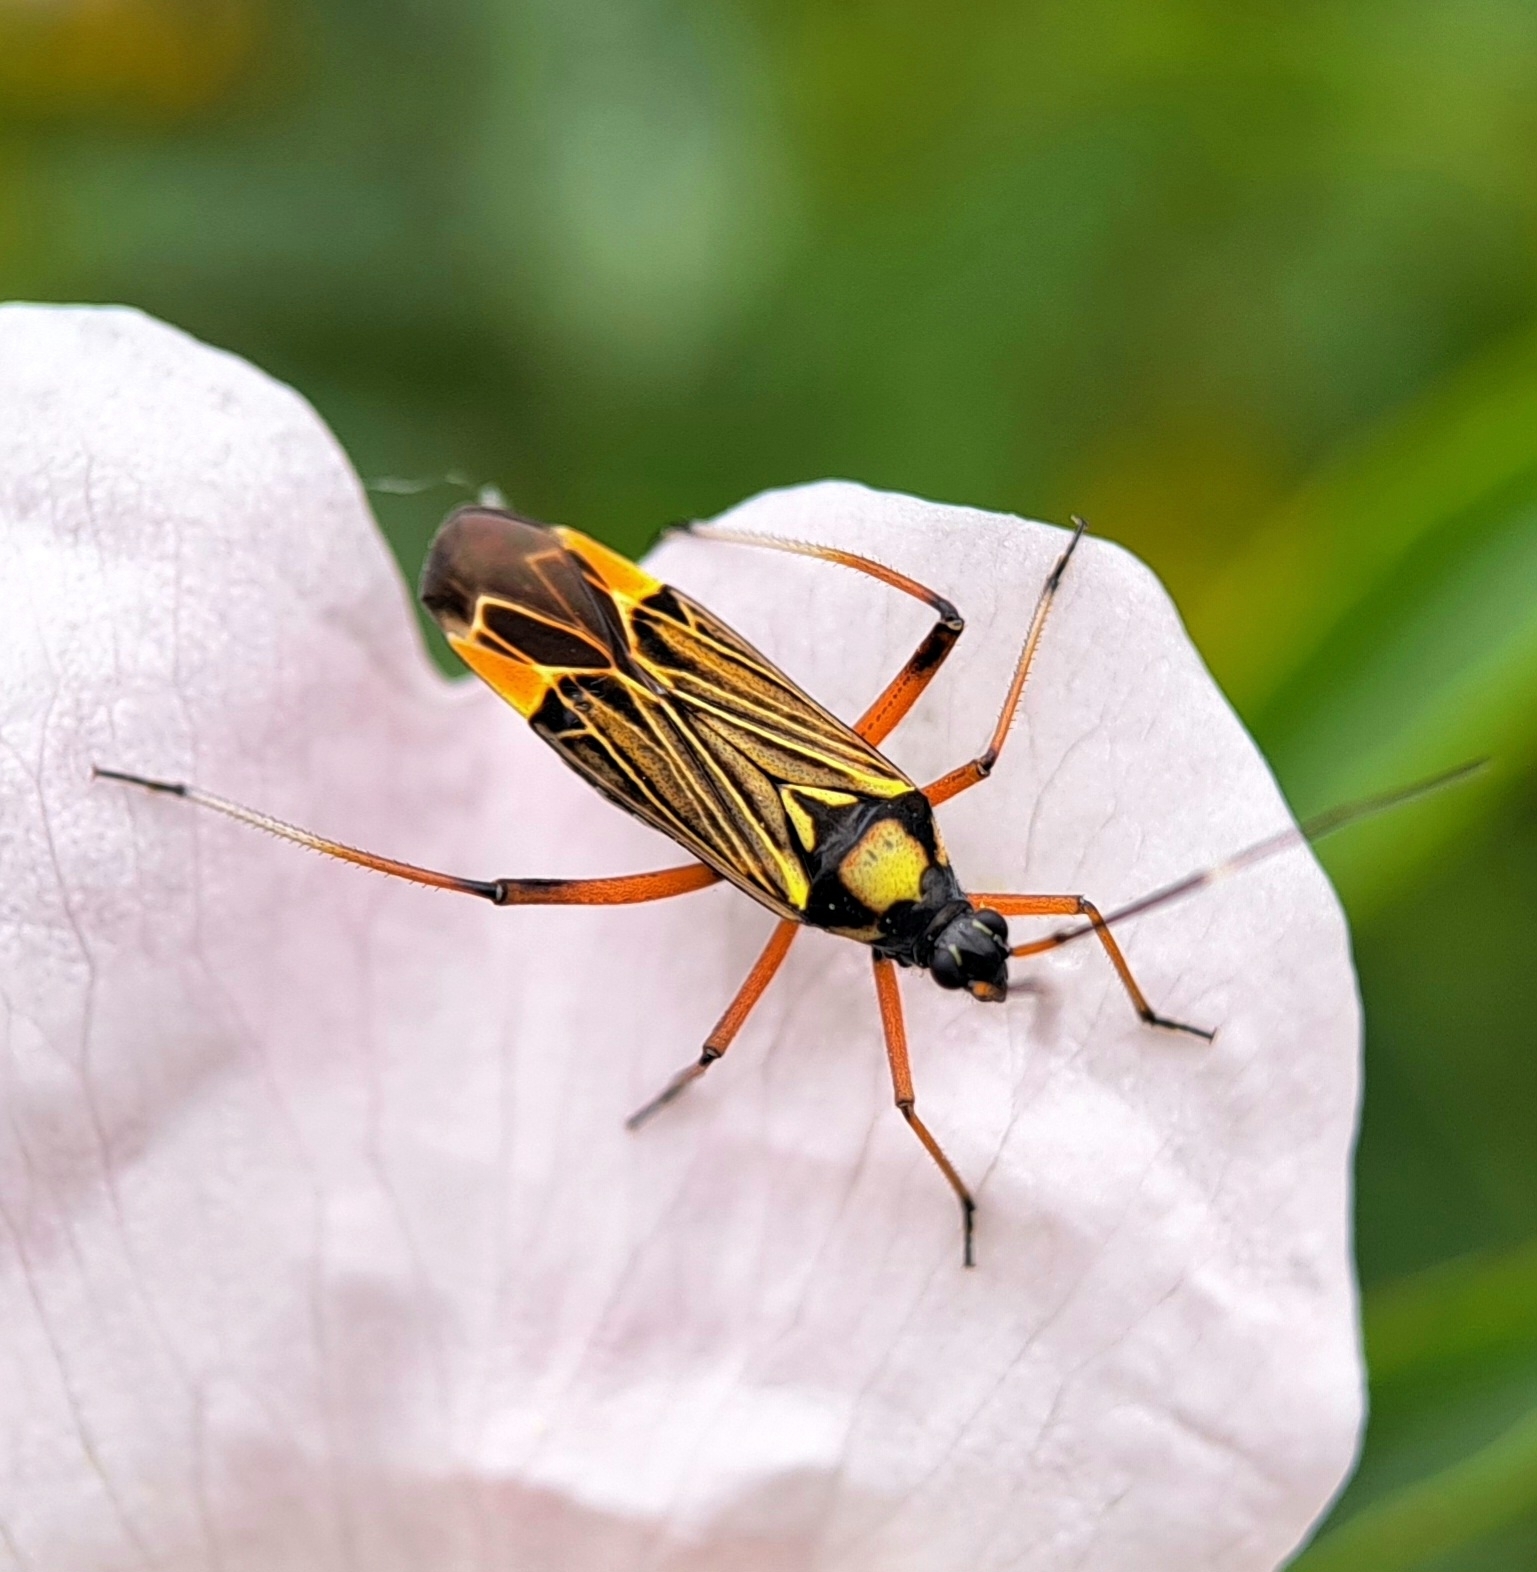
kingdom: Animalia
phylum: Arthropoda
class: Insecta
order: Hemiptera
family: Miridae
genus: Miris
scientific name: Miris striatus
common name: Fine streaked bugkin
